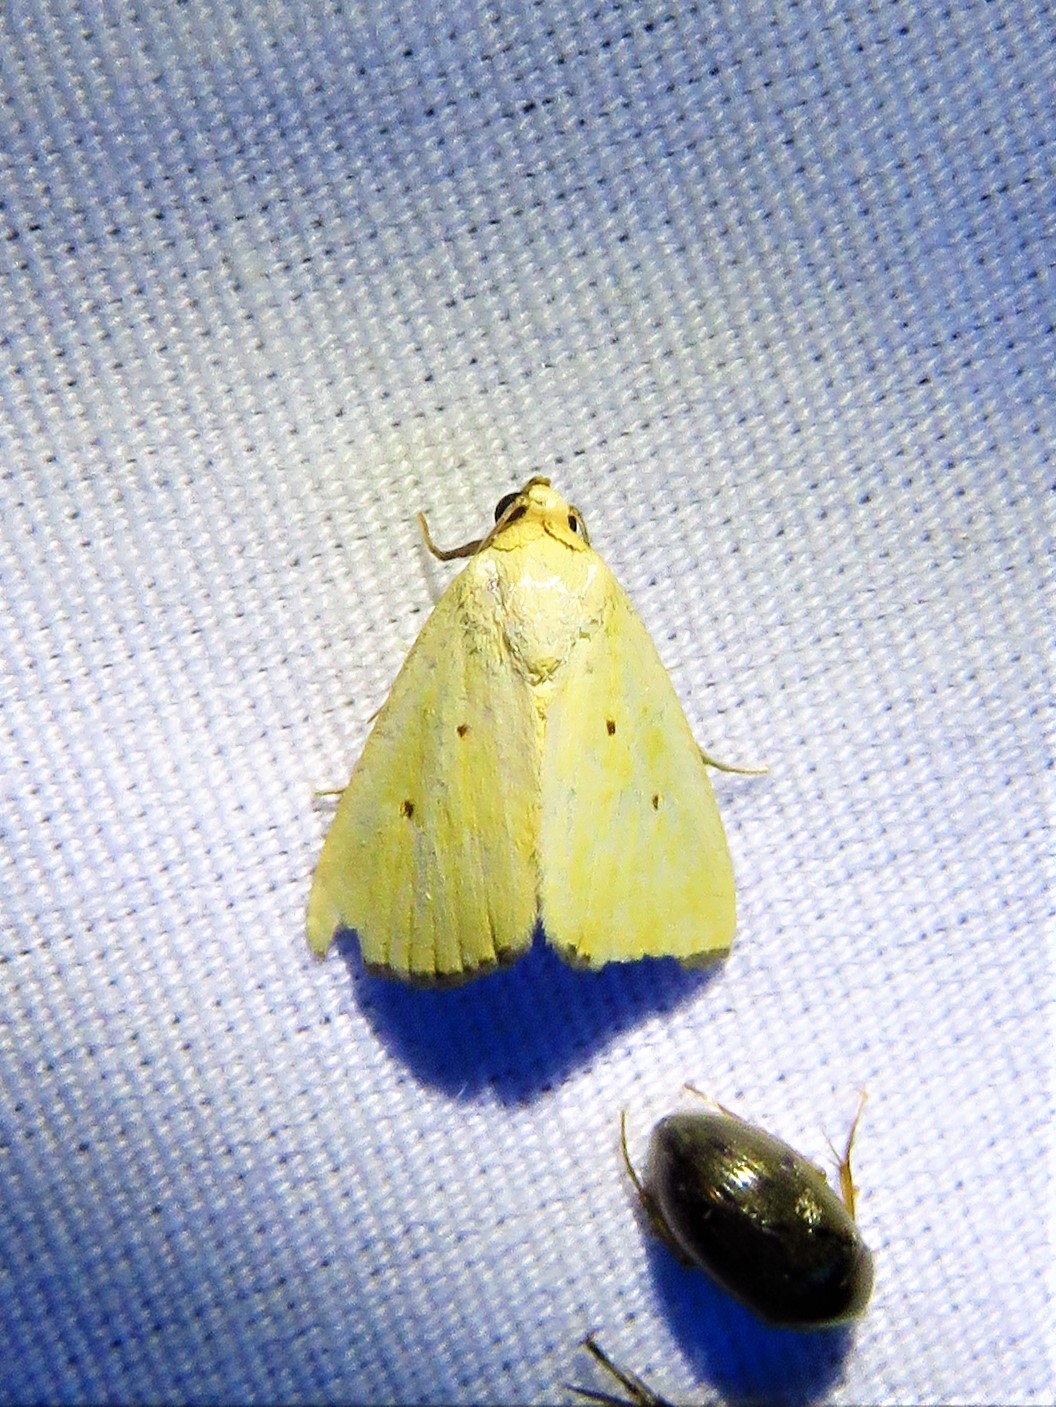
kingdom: Animalia
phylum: Arthropoda
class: Insecta
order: Lepidoptera
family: Noctuidae
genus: Marimatha
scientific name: Marimatha nigrofimbria
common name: Black-bordered lemon moth
